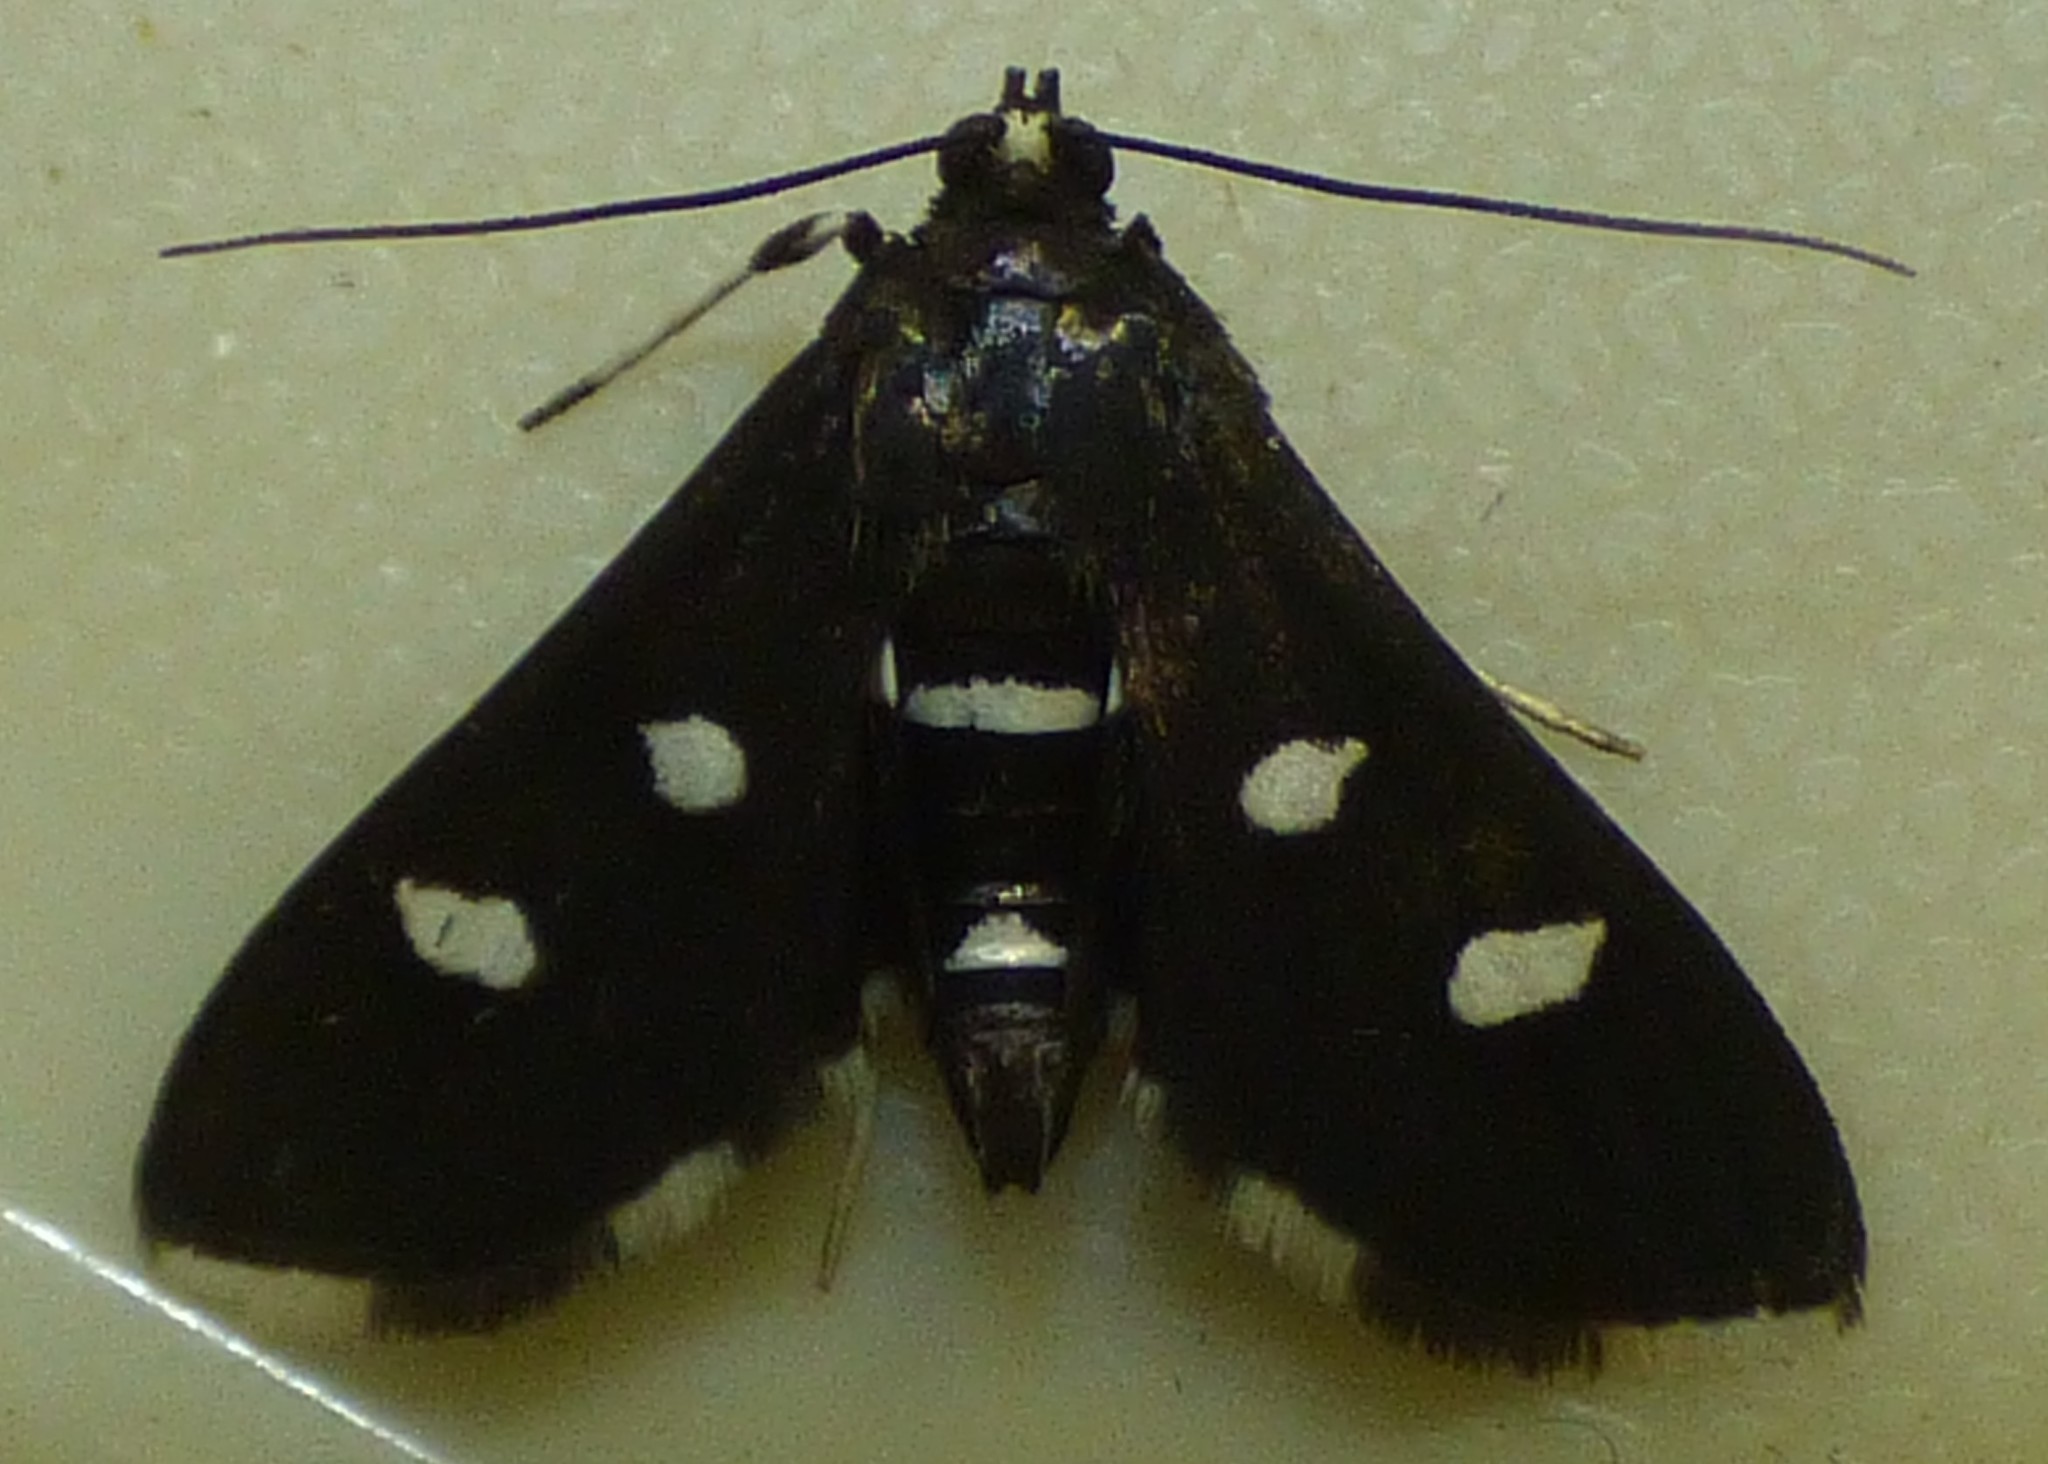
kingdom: Animalia
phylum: Arthropoda
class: Insecta
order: Lepidoptera
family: Crambidae
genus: Desmia
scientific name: Desmia funeralis
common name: Grape leaf folder moth
